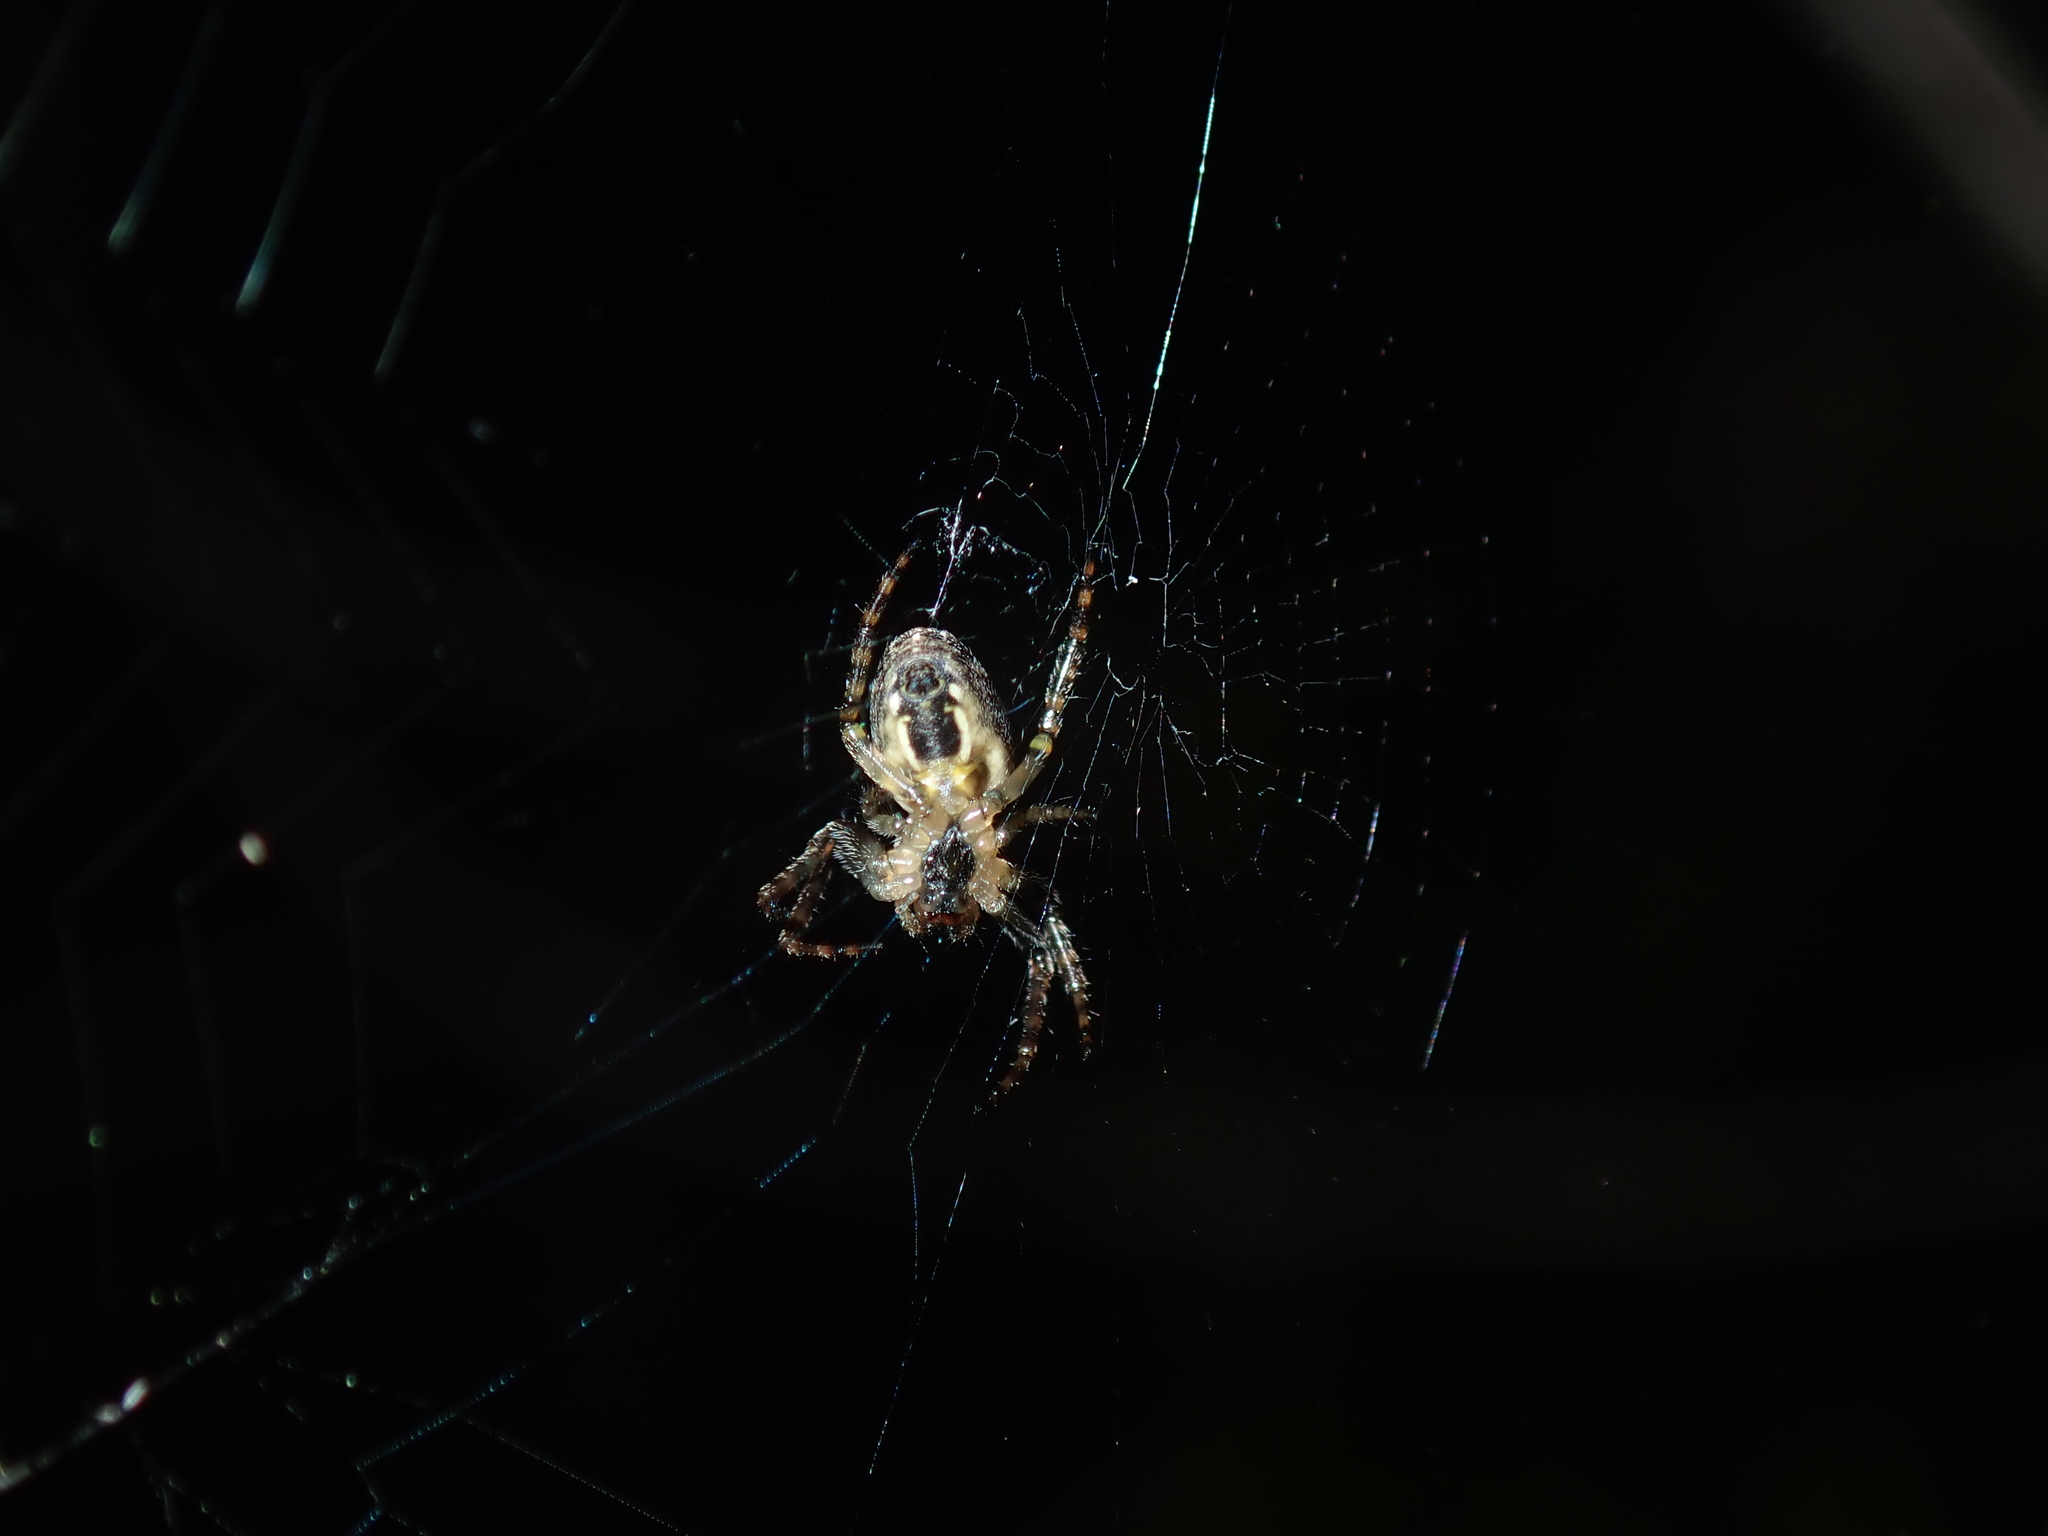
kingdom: Animalia
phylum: Arthropoda
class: Arachnida
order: Araneae
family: Araneidae
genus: Plebs
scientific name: Plebs eburnus
